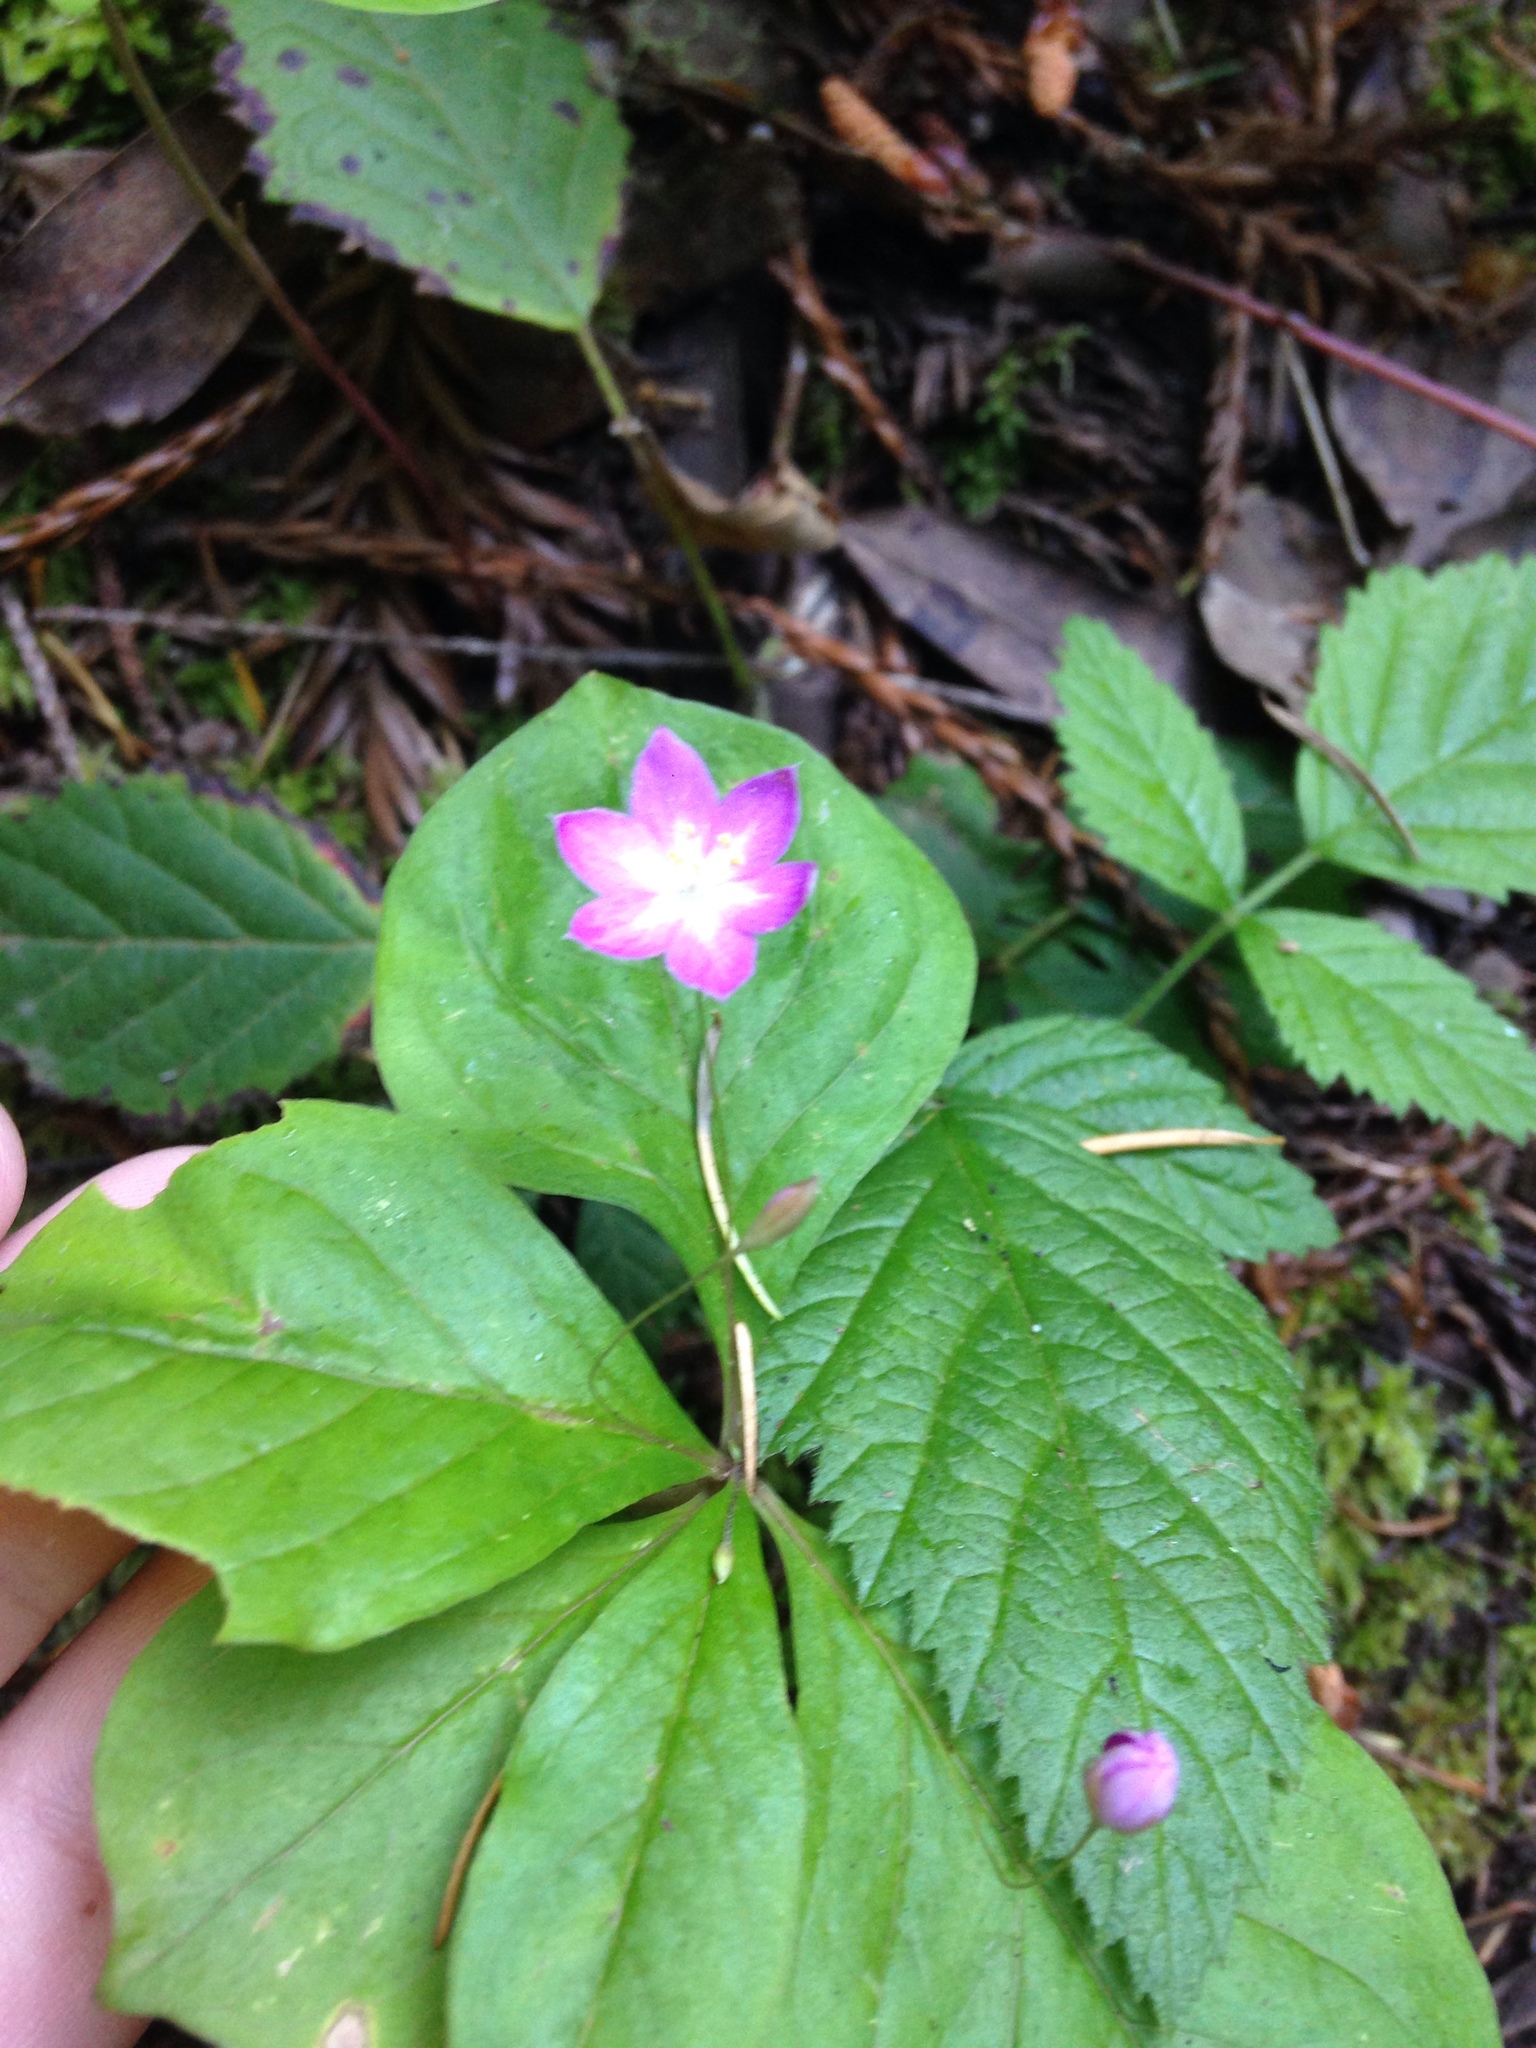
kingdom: Plantae
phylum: Tracheophyta
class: Magnoliopsida
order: Ericales
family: Primulaceae
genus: Lysimachia
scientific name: Lysimachia latifolia
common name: Pacific starflower
